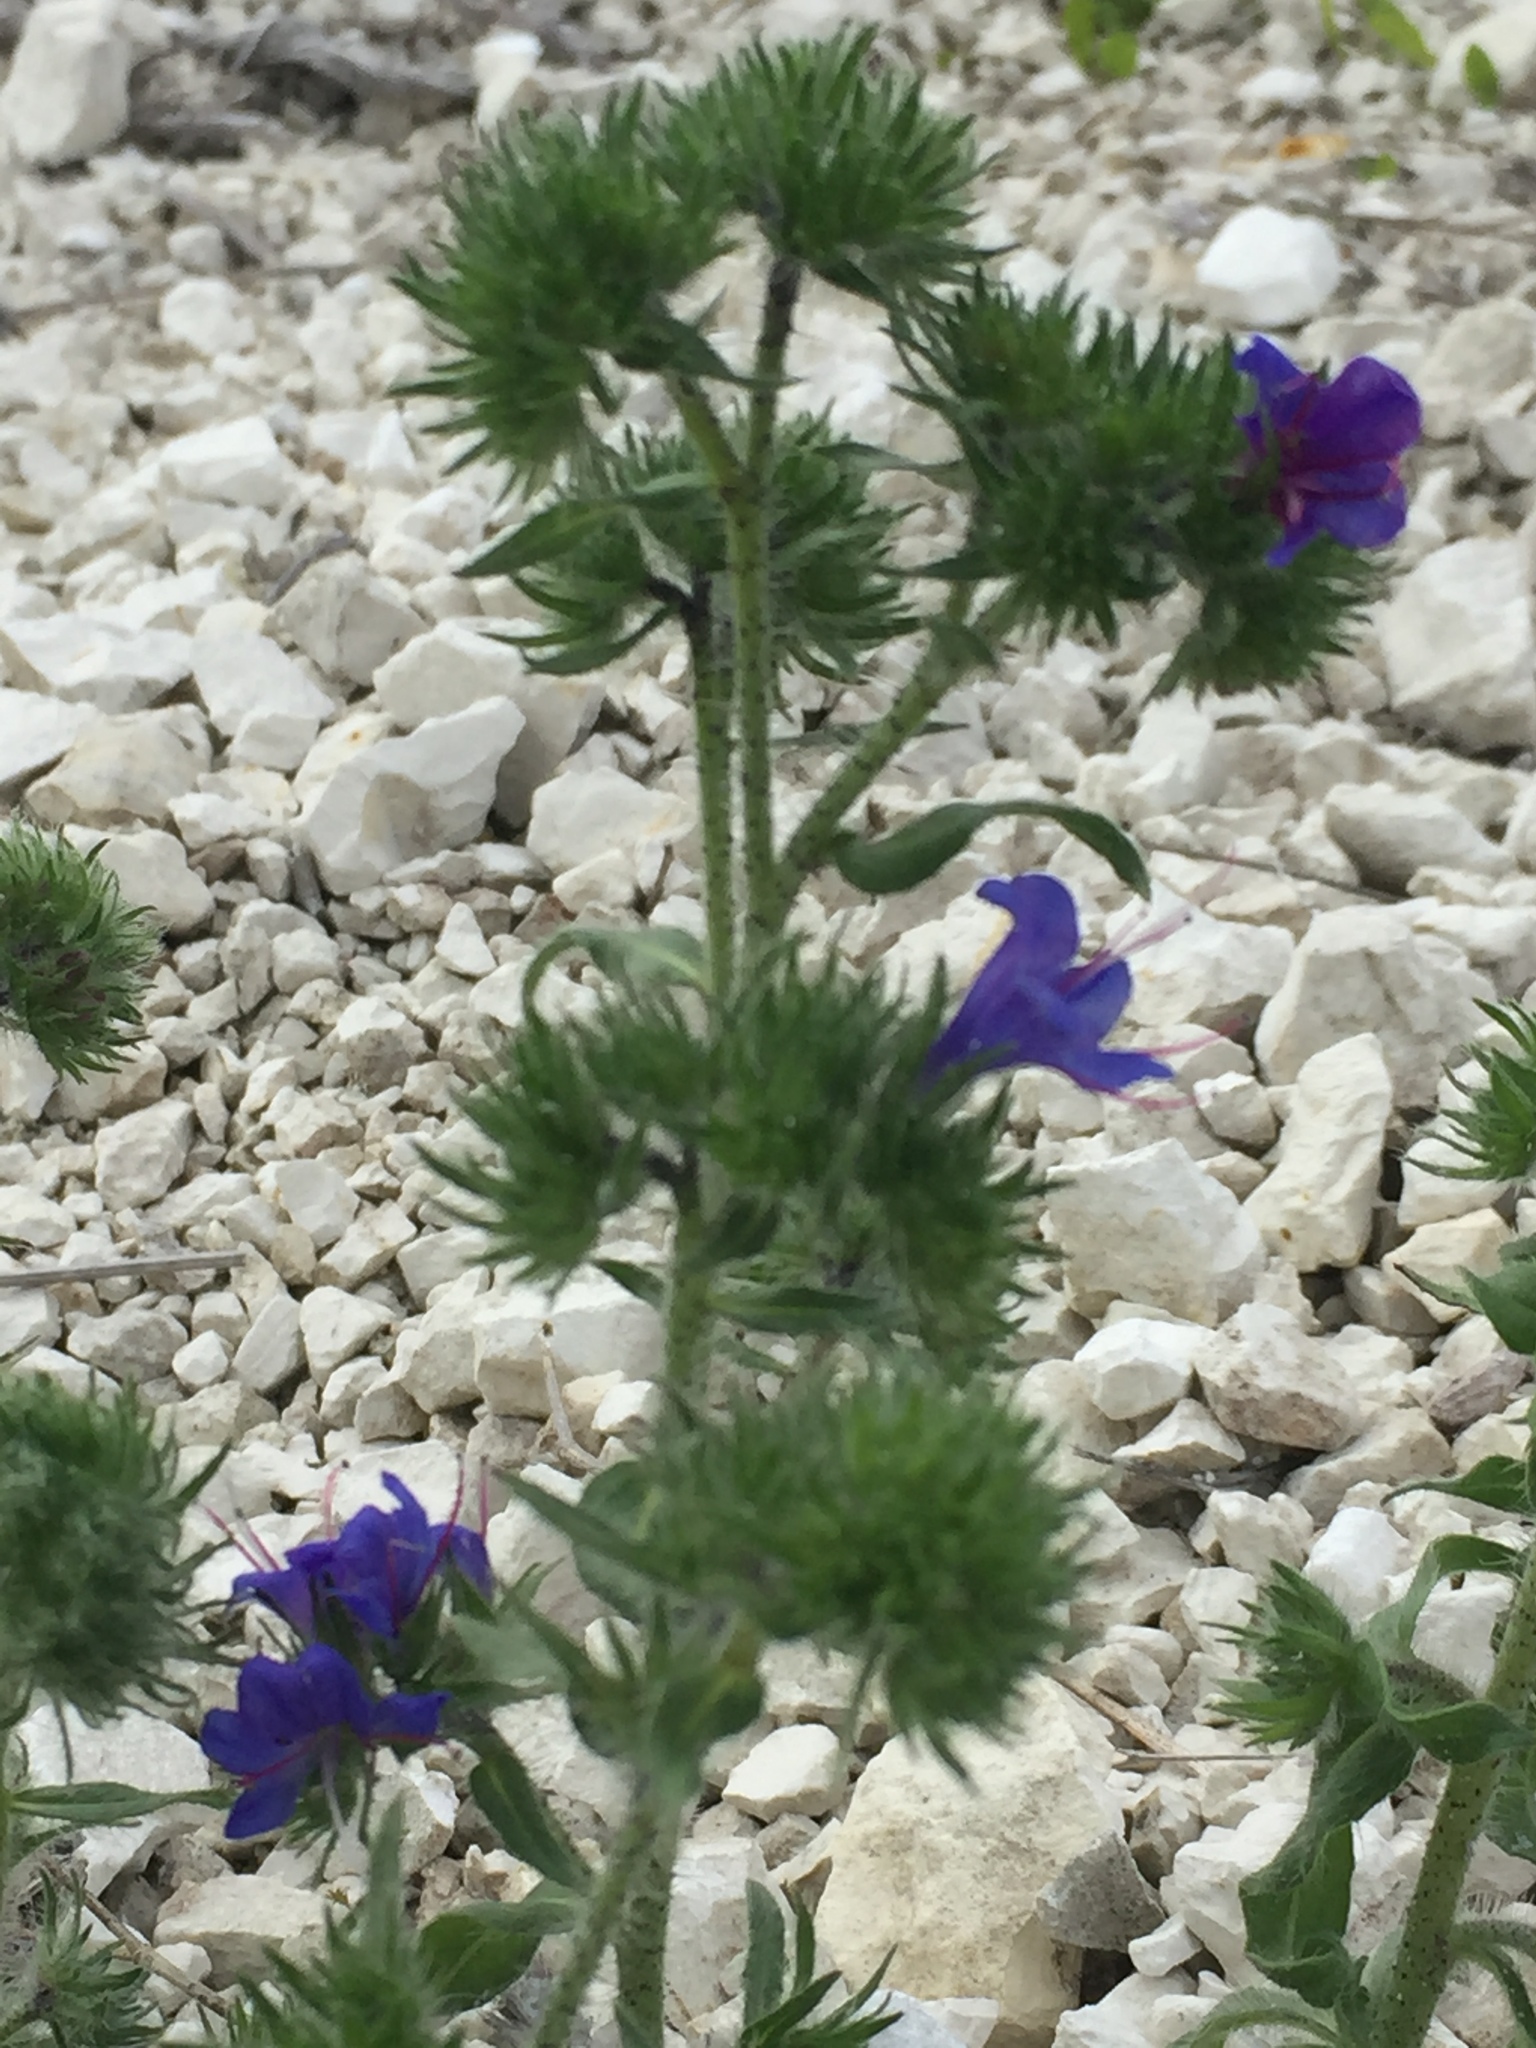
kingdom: Plantae
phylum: Tracheophyta
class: Magnoliopsida
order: Boraginales
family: Boraginaceae
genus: Echium
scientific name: Echium vulgare
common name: Common viper's bugloss
